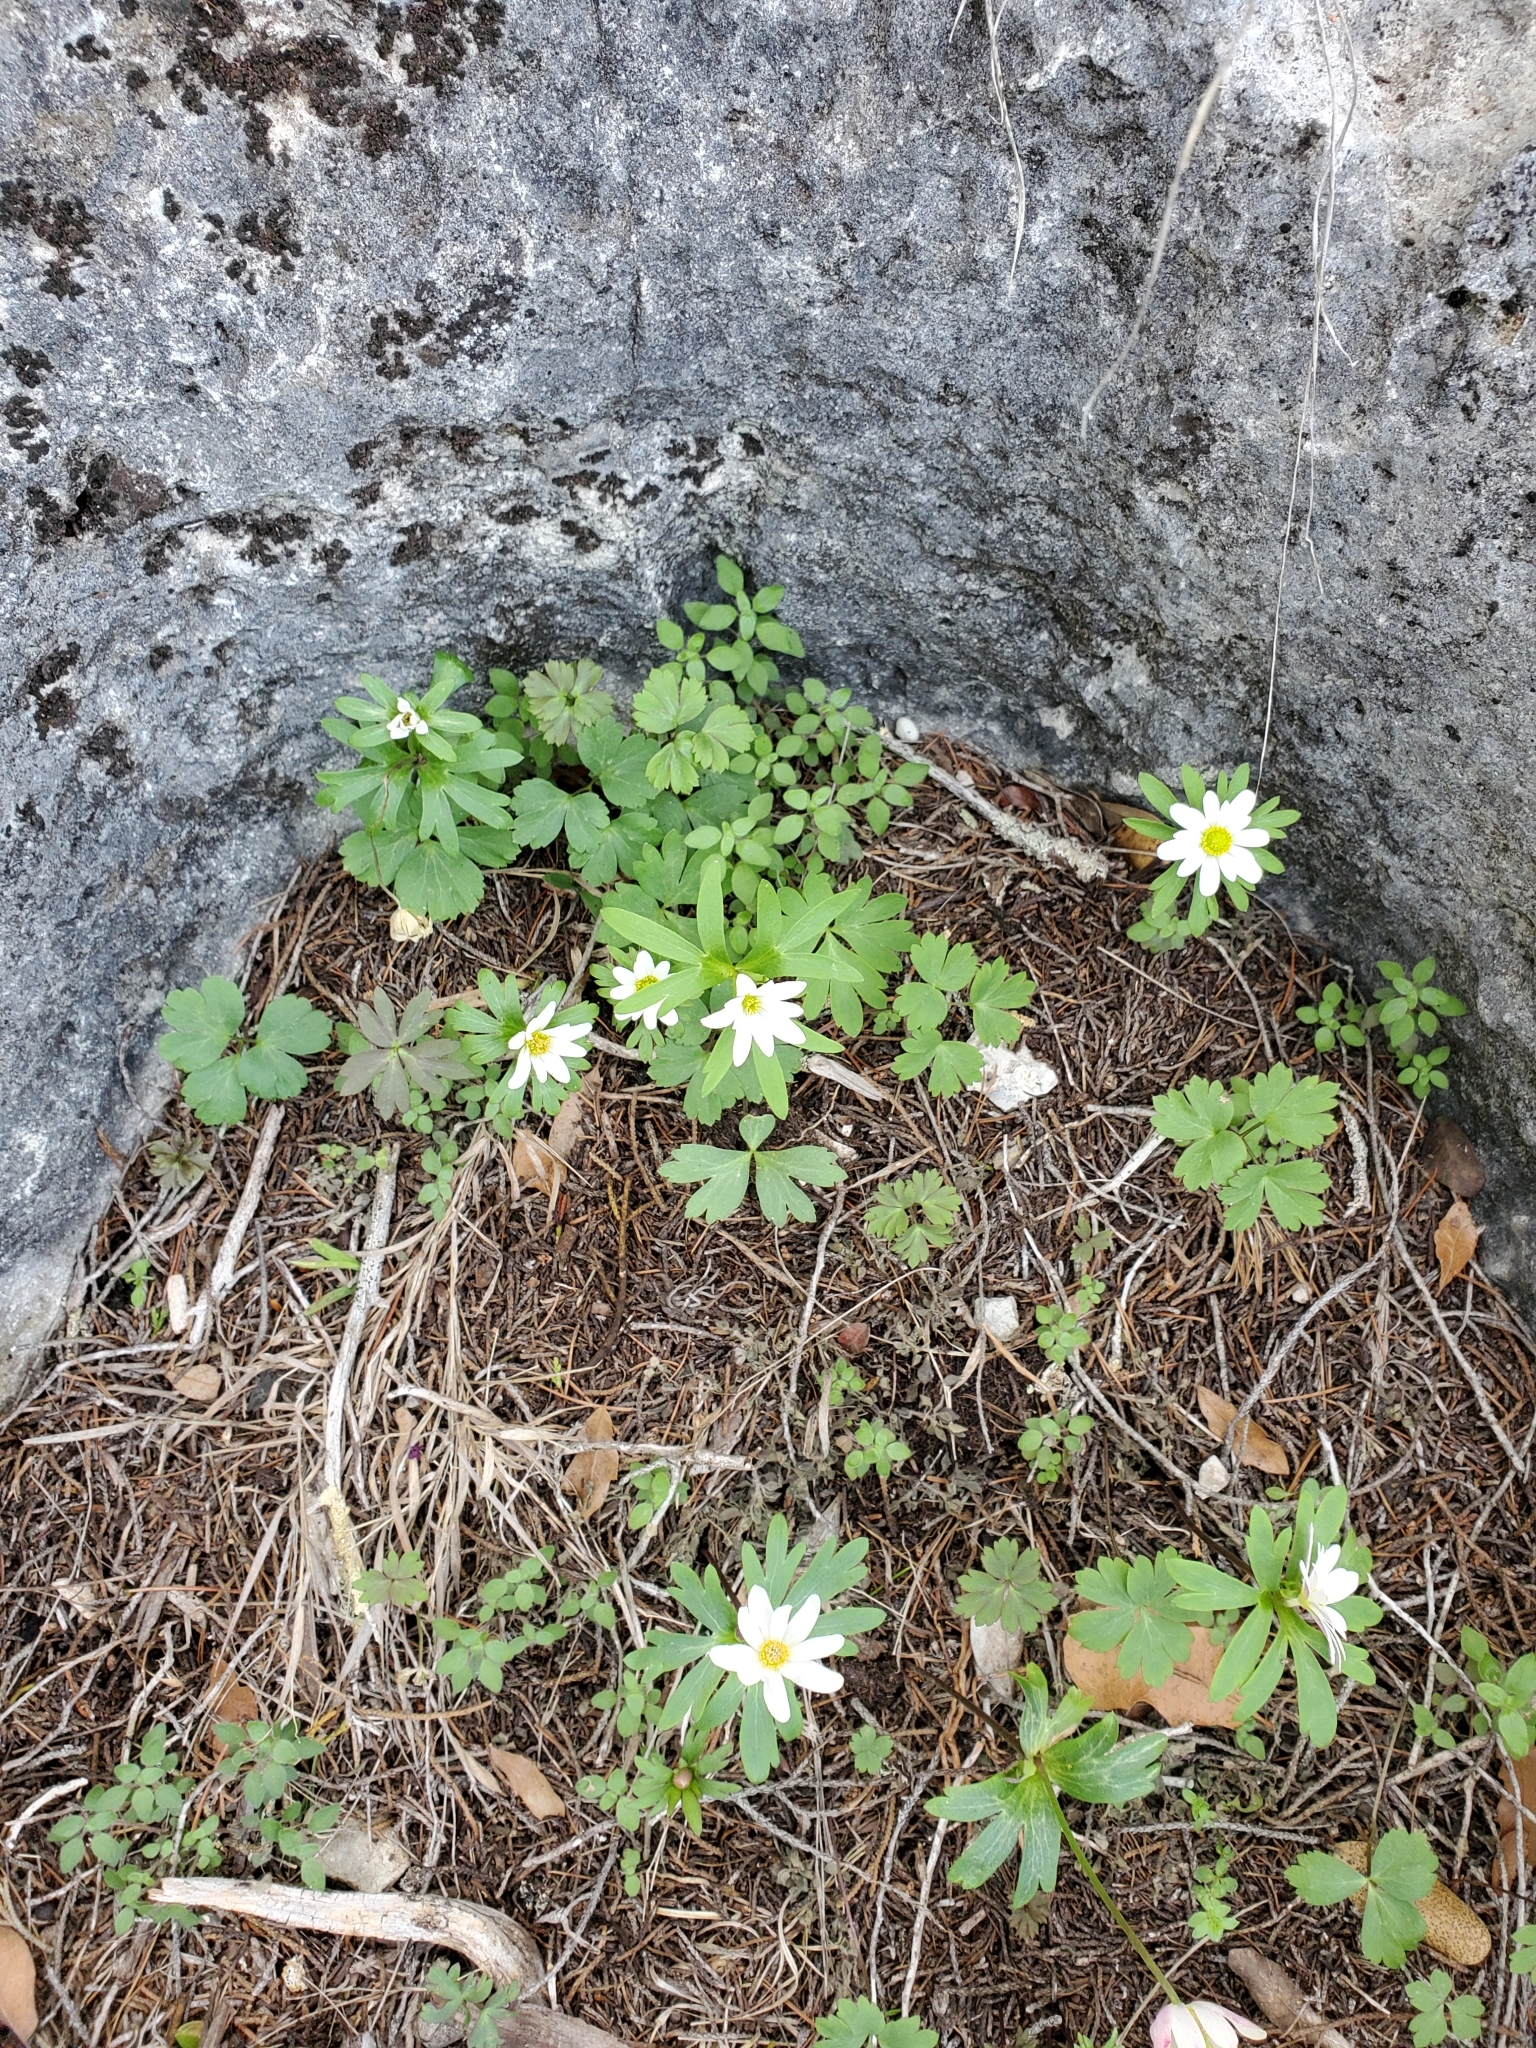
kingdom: Plantae
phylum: Tracheophyta
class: Magnoliopsida
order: Ranunculales
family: Ranunculaceae
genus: Anemone
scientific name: Anemone edwardsiana
